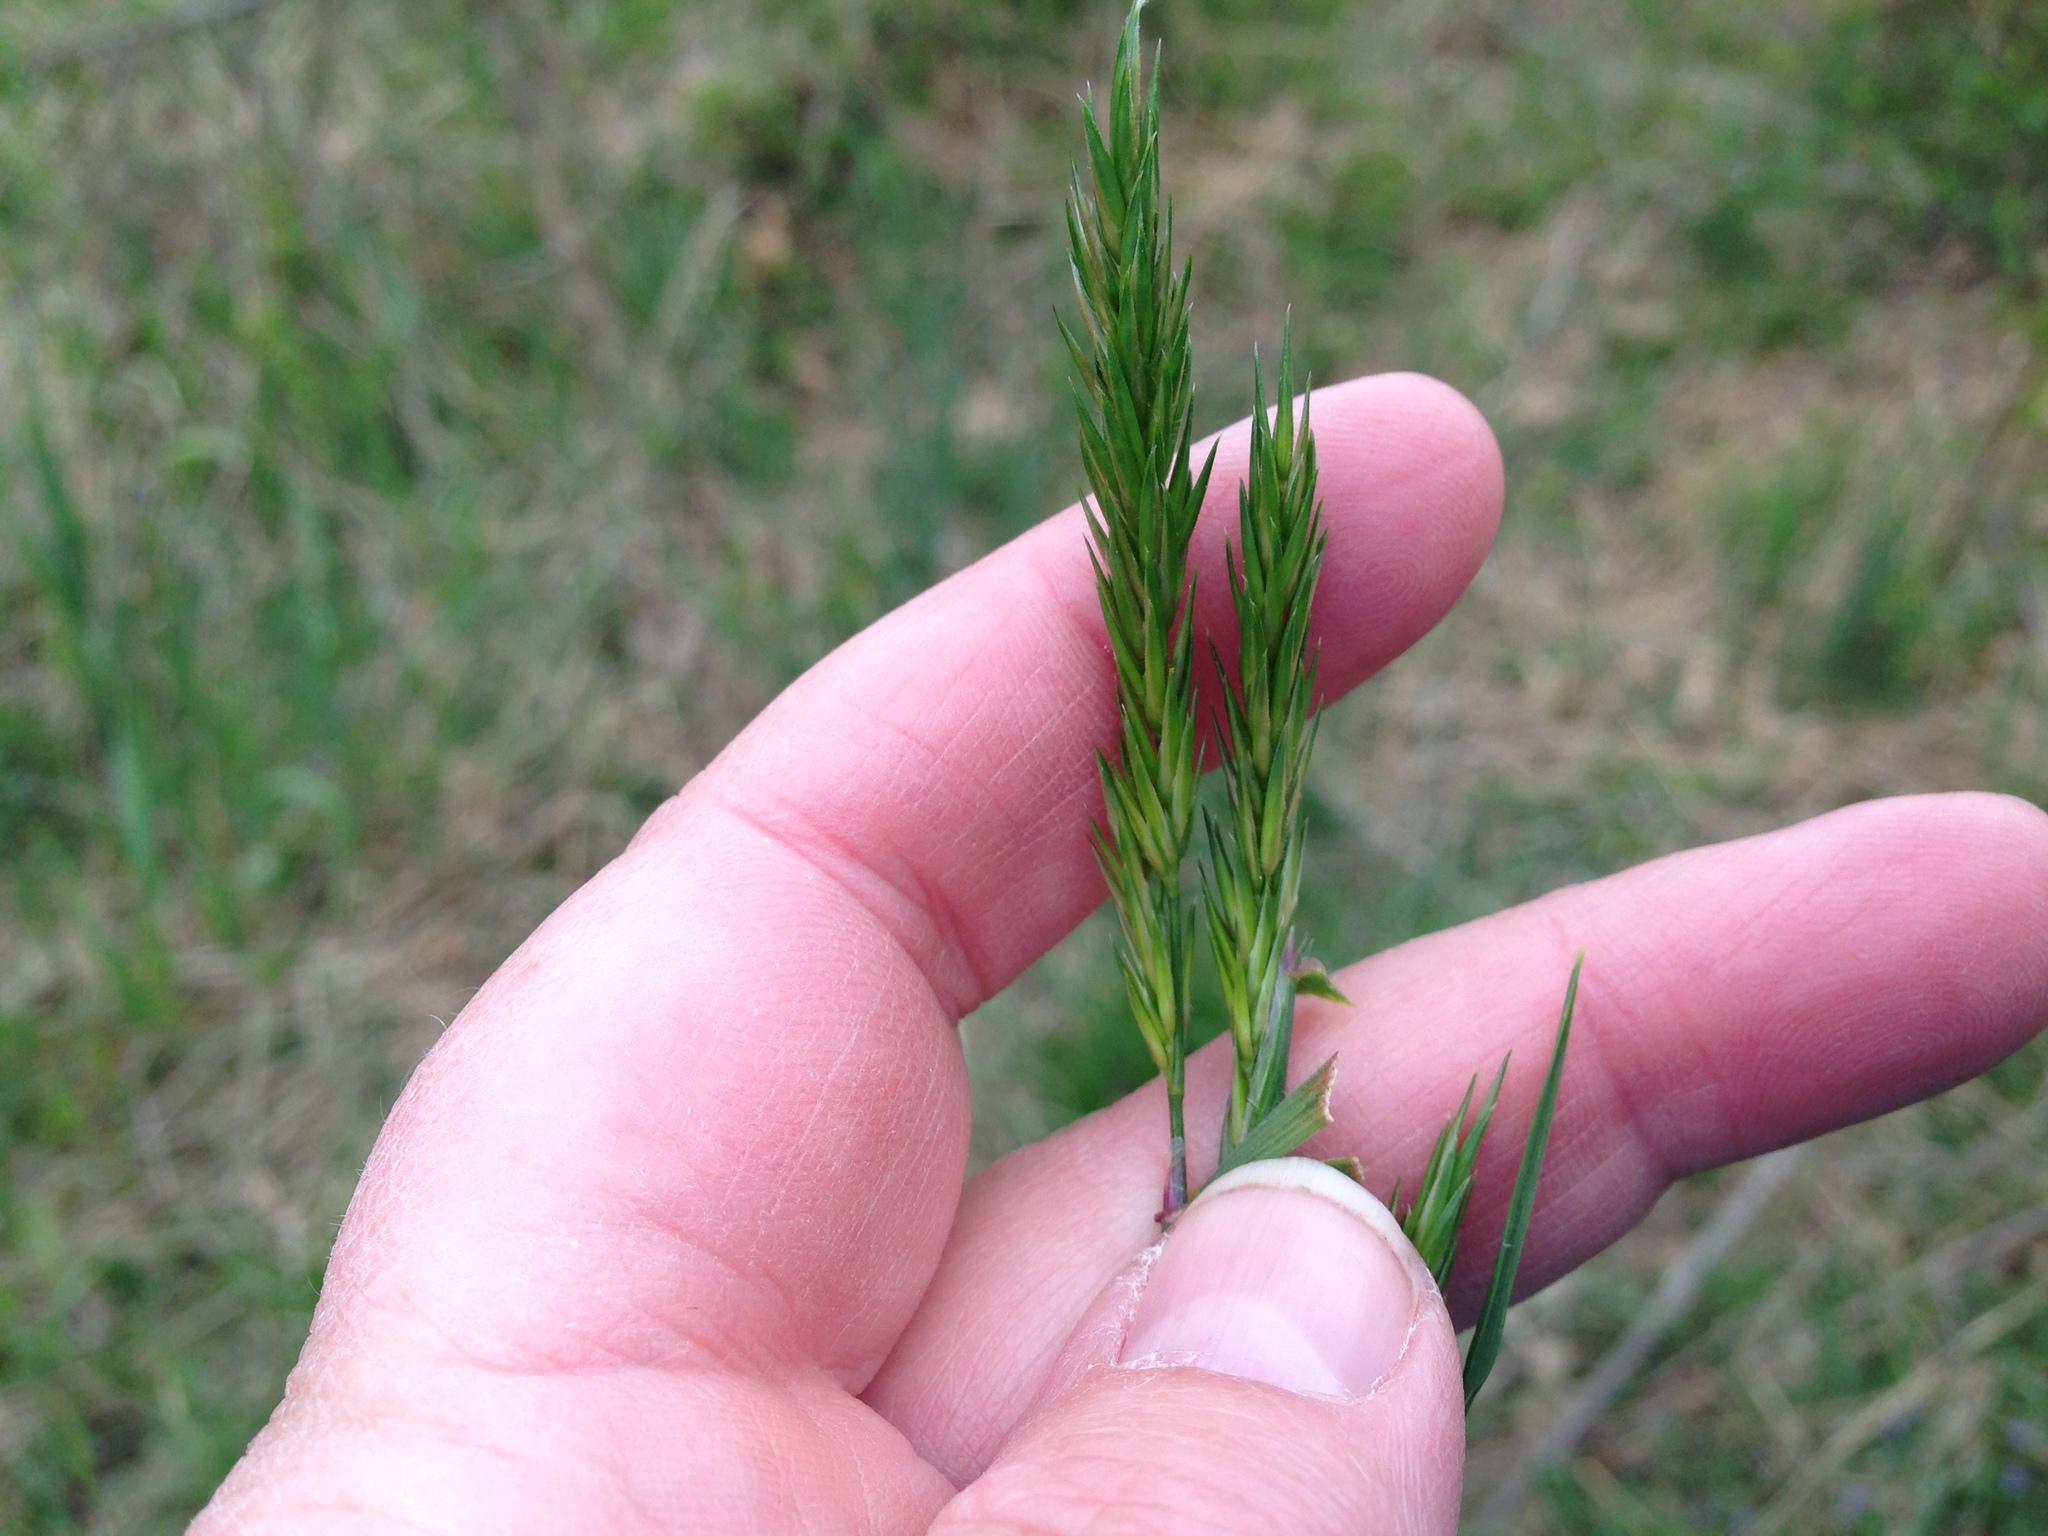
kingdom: Plantae
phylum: Tracheophyta
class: Liliopsida
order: Poales
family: Poaceae
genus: Anthoxanthum
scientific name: Anthoxanthum odoratum
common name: Sweet vernalgrass
